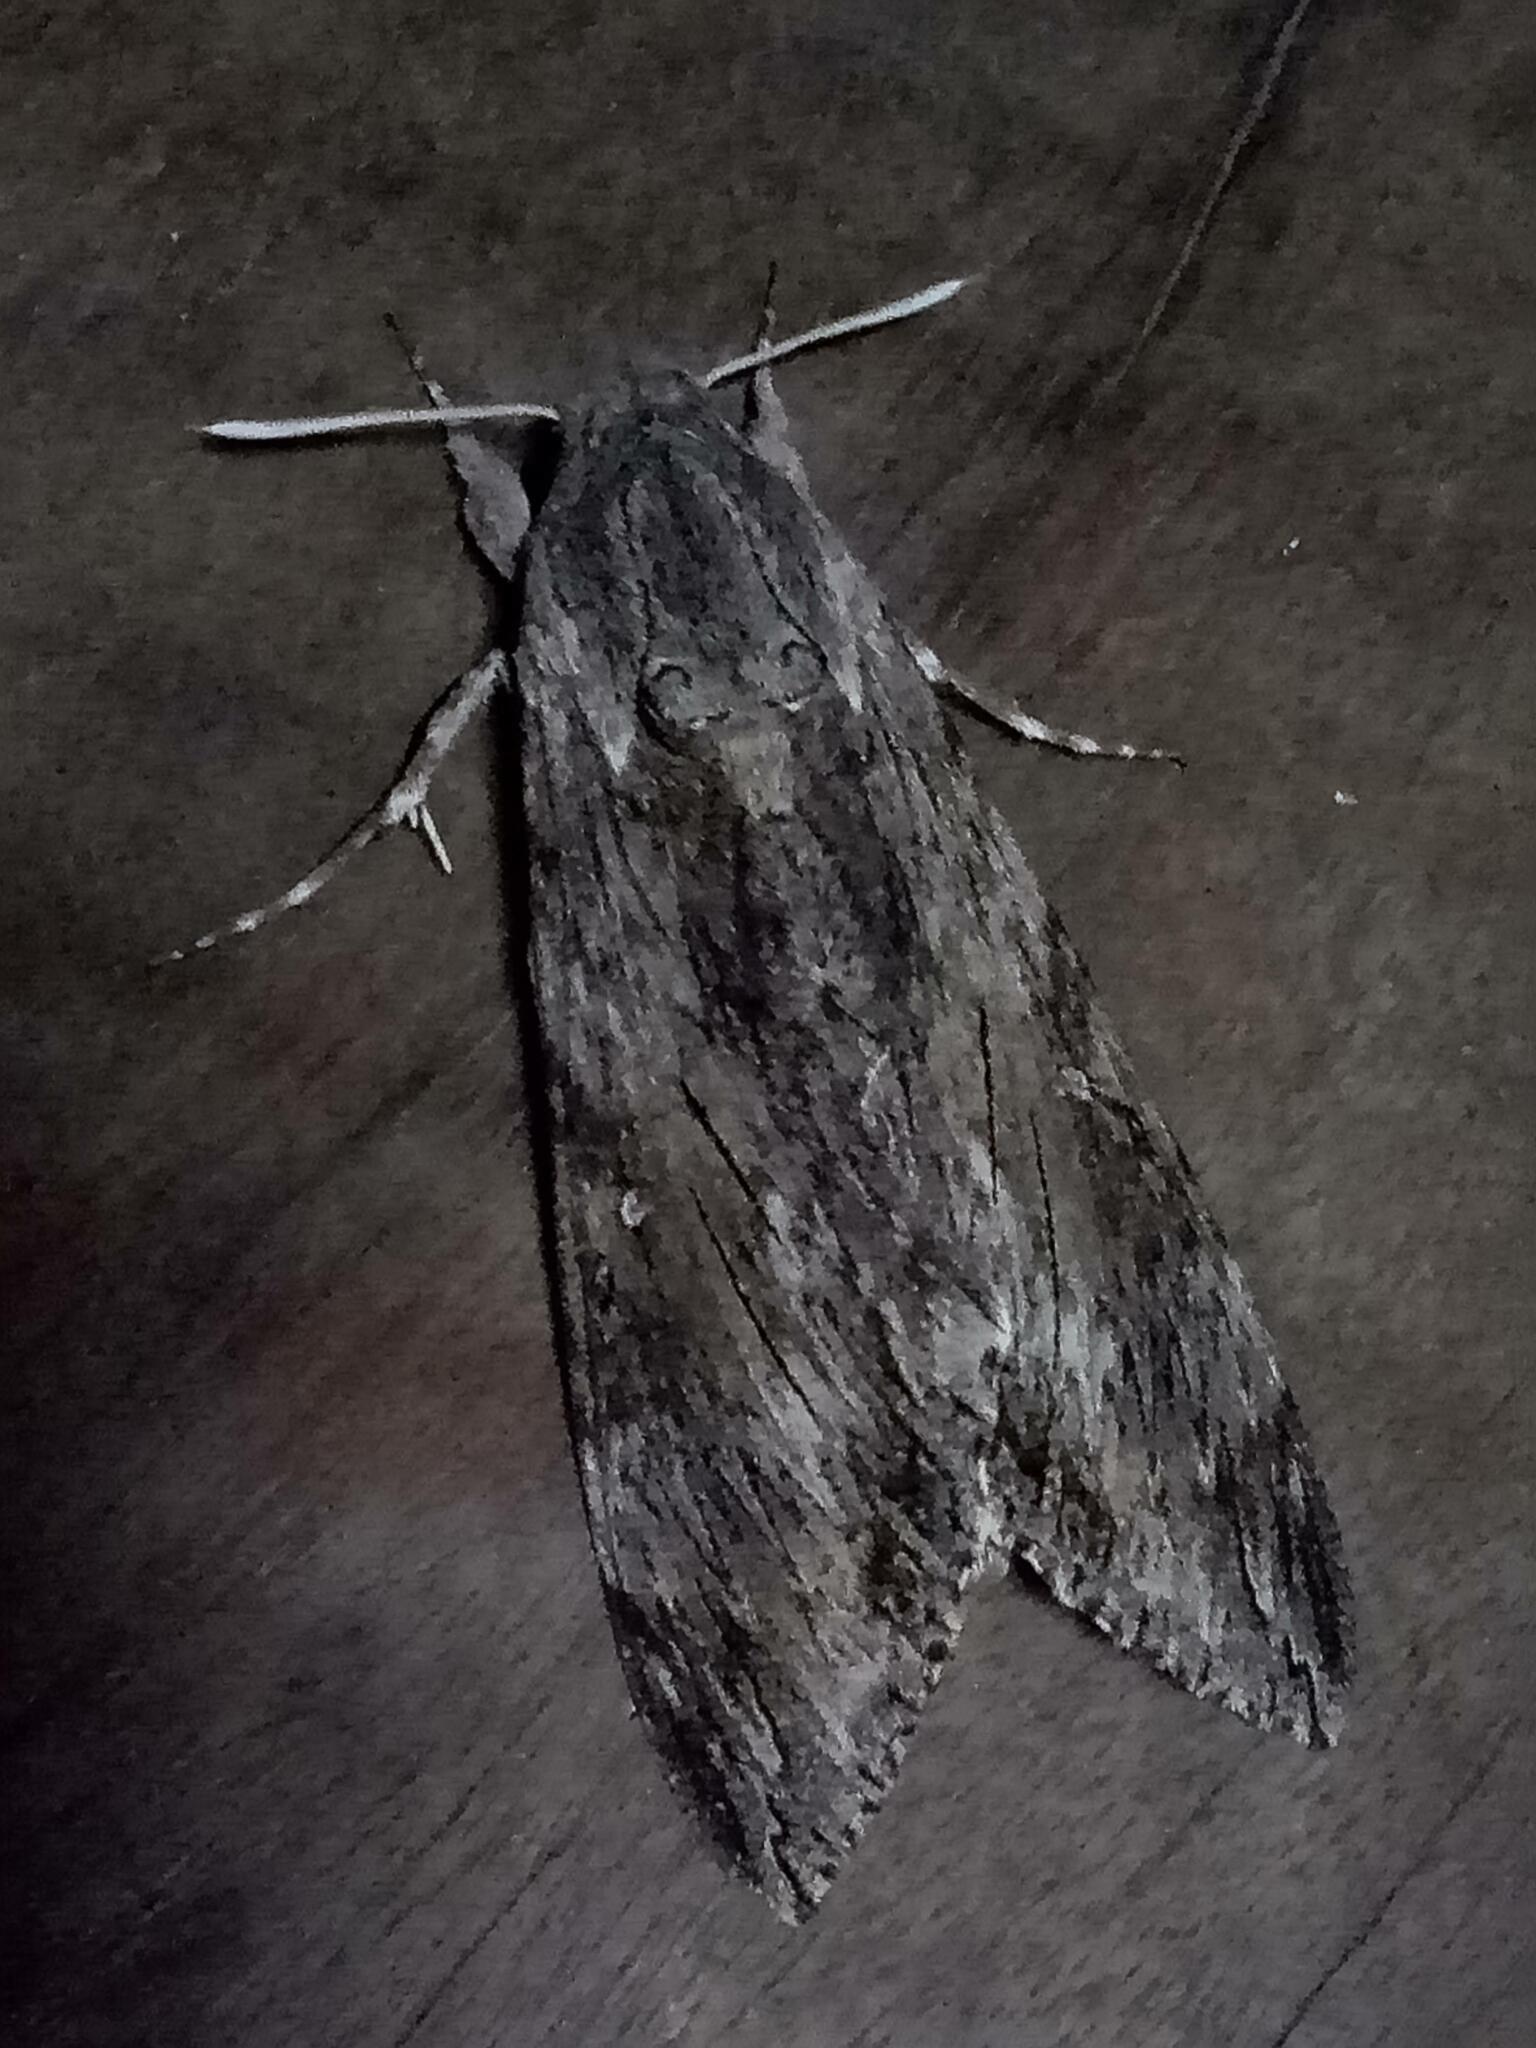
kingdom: Animalia
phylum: Arthropoda
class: Insecta
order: Lepidoptera
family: Sphingidae
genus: Agrius
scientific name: Agrius convolvuli
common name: Convolvulus hawkmoth
